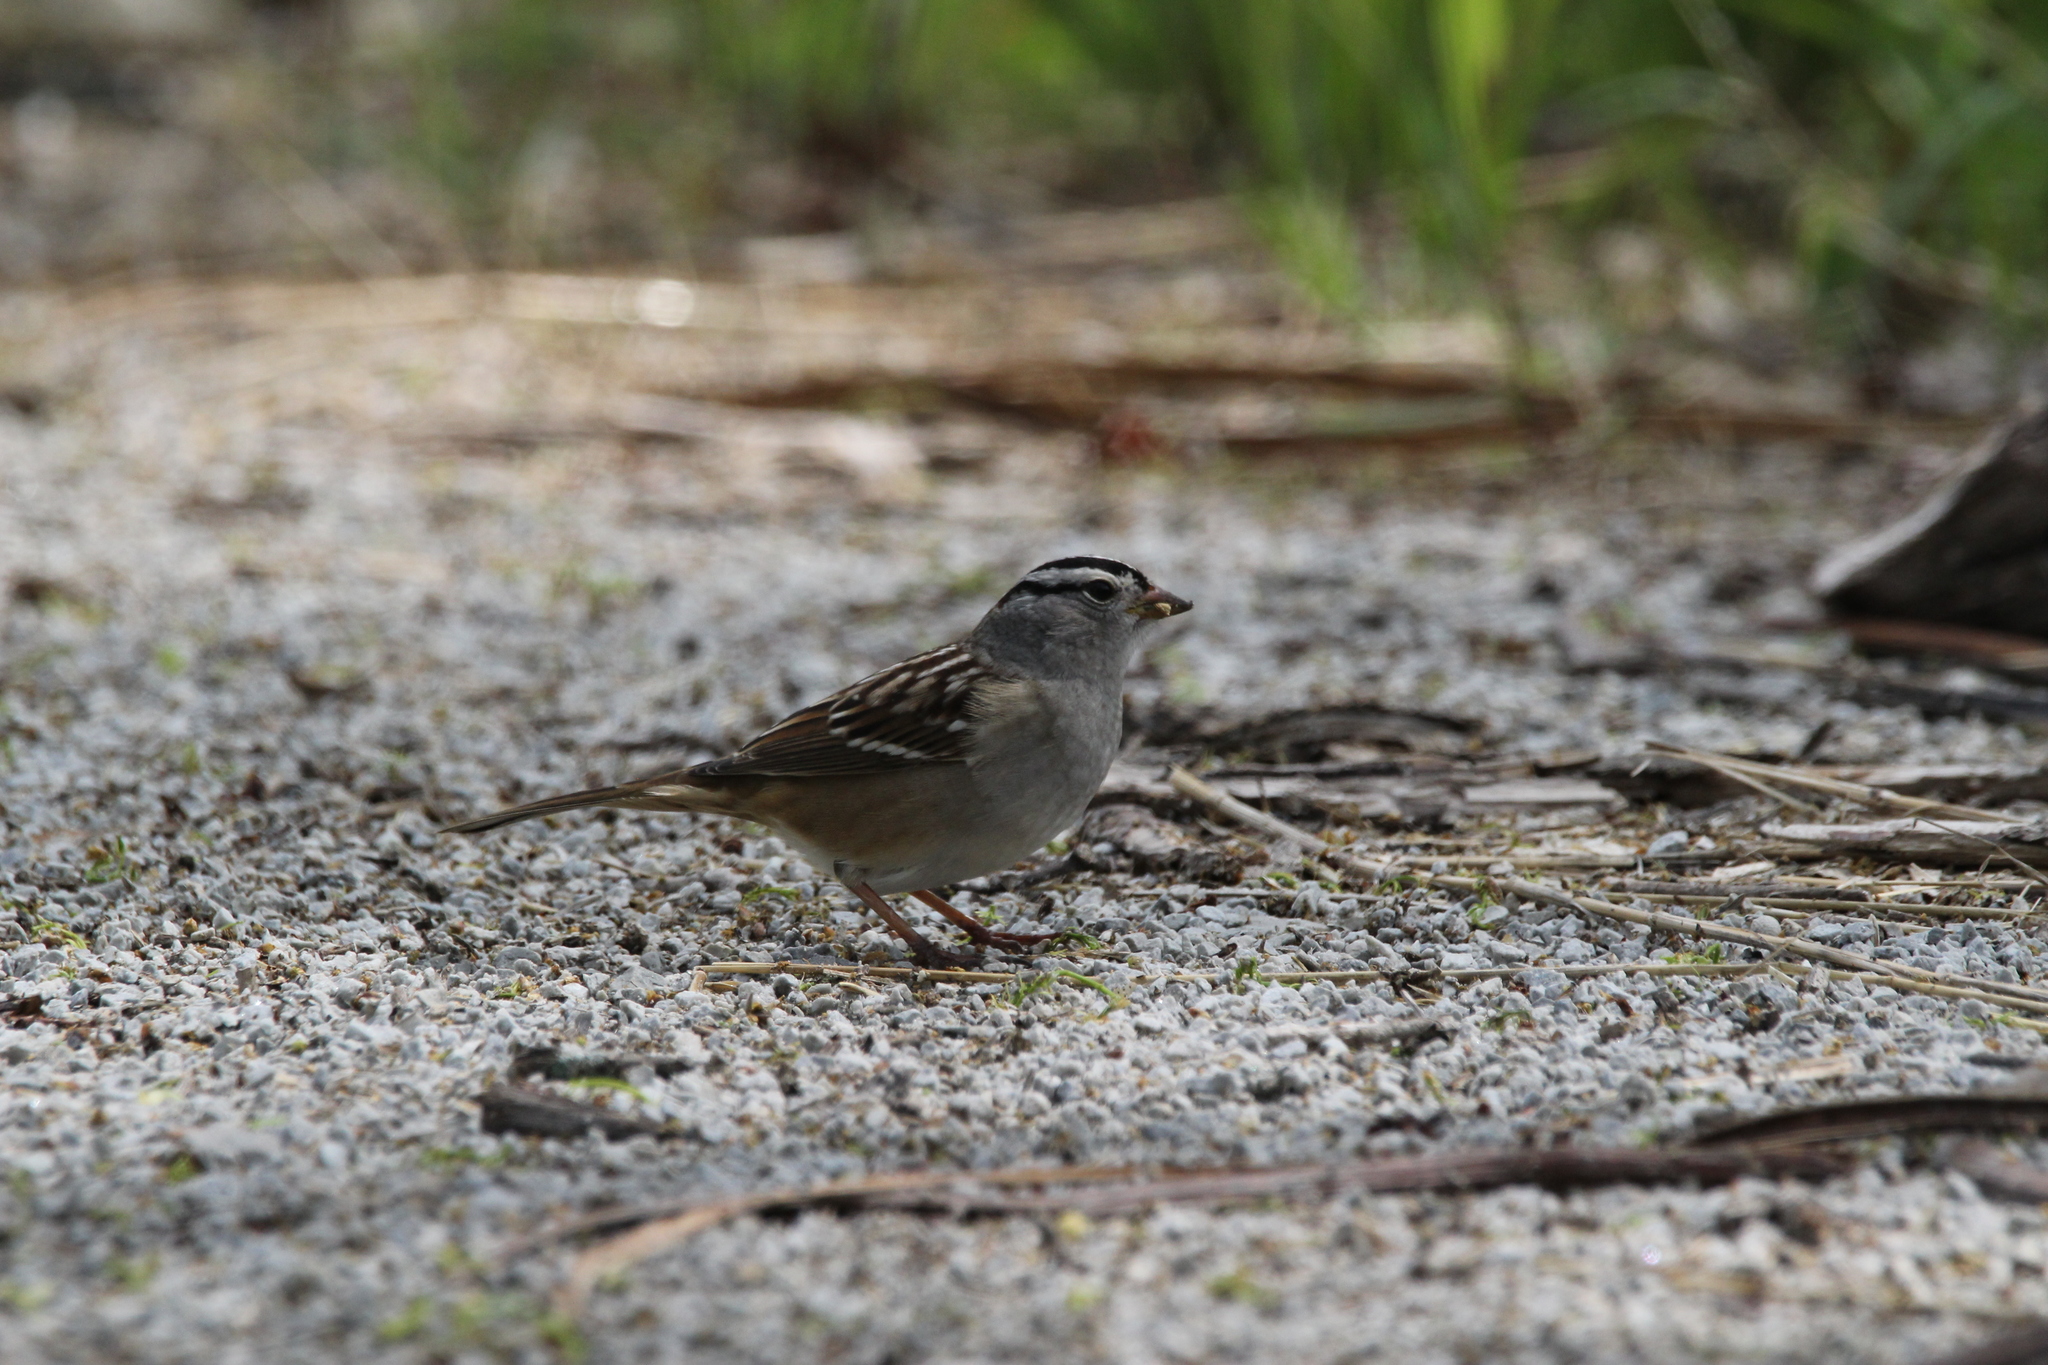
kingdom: Animalia
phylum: Chordata
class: Aves
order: Passeriformes
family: Passerellidae
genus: Zonotrichia
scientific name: Zonotrichia leucophrys
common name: White-crowned sparrow
